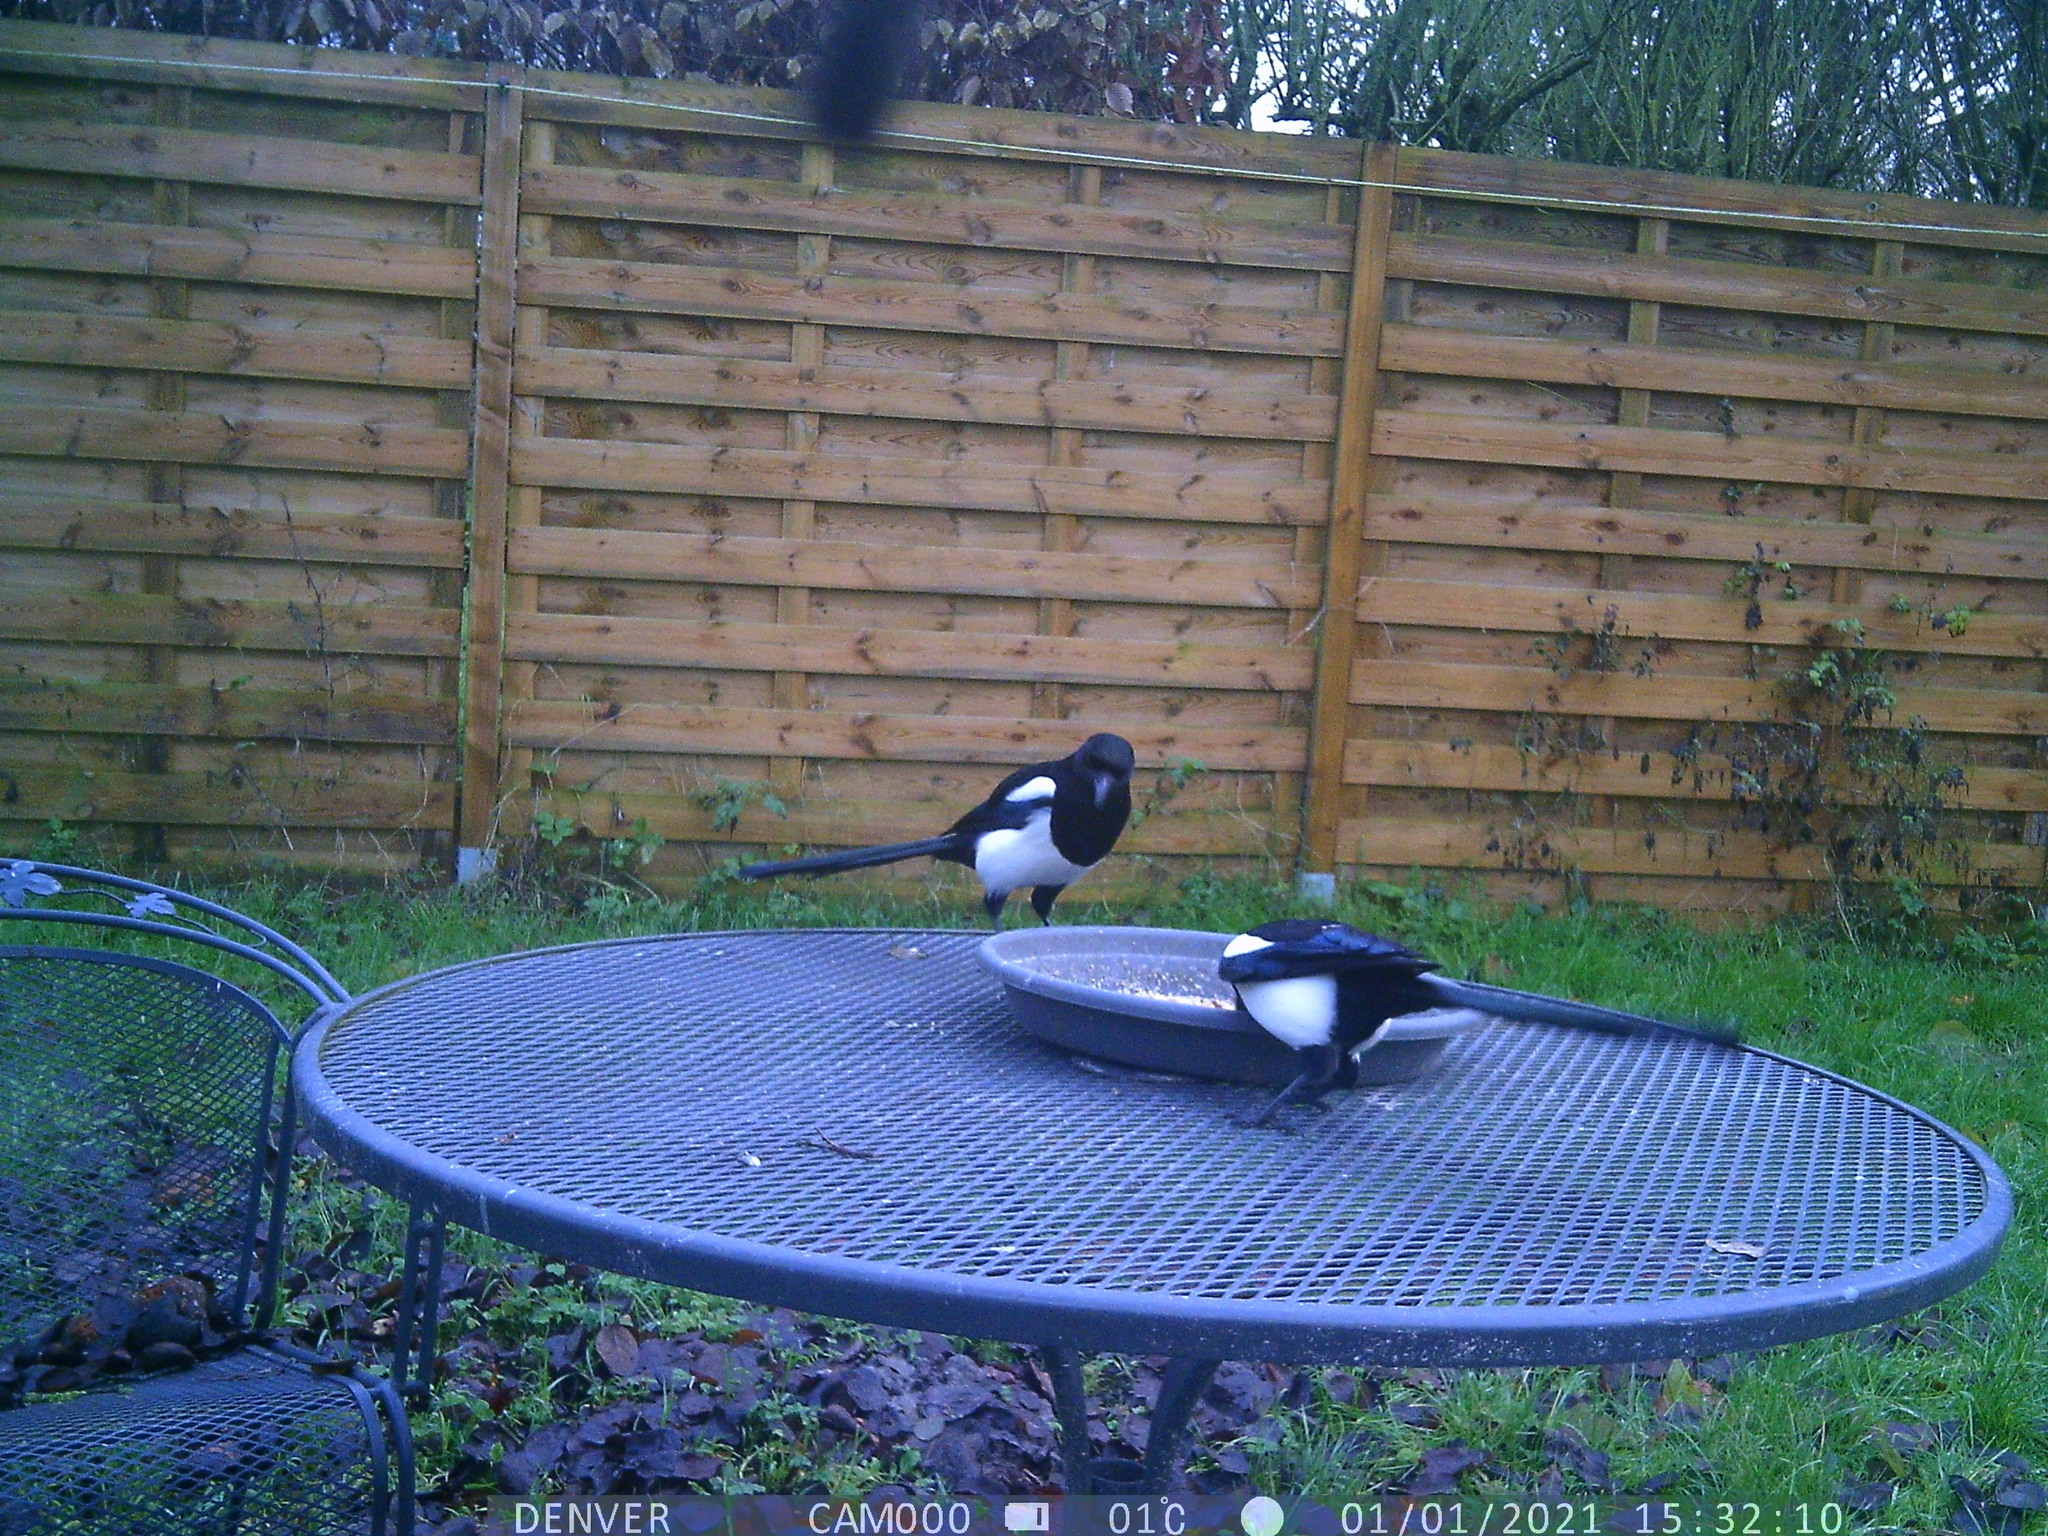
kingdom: Animalia
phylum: Chordata
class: Aves
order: Passeriformes
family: Corvidae
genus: Pica
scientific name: Pica pica
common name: Eurasian magpie
